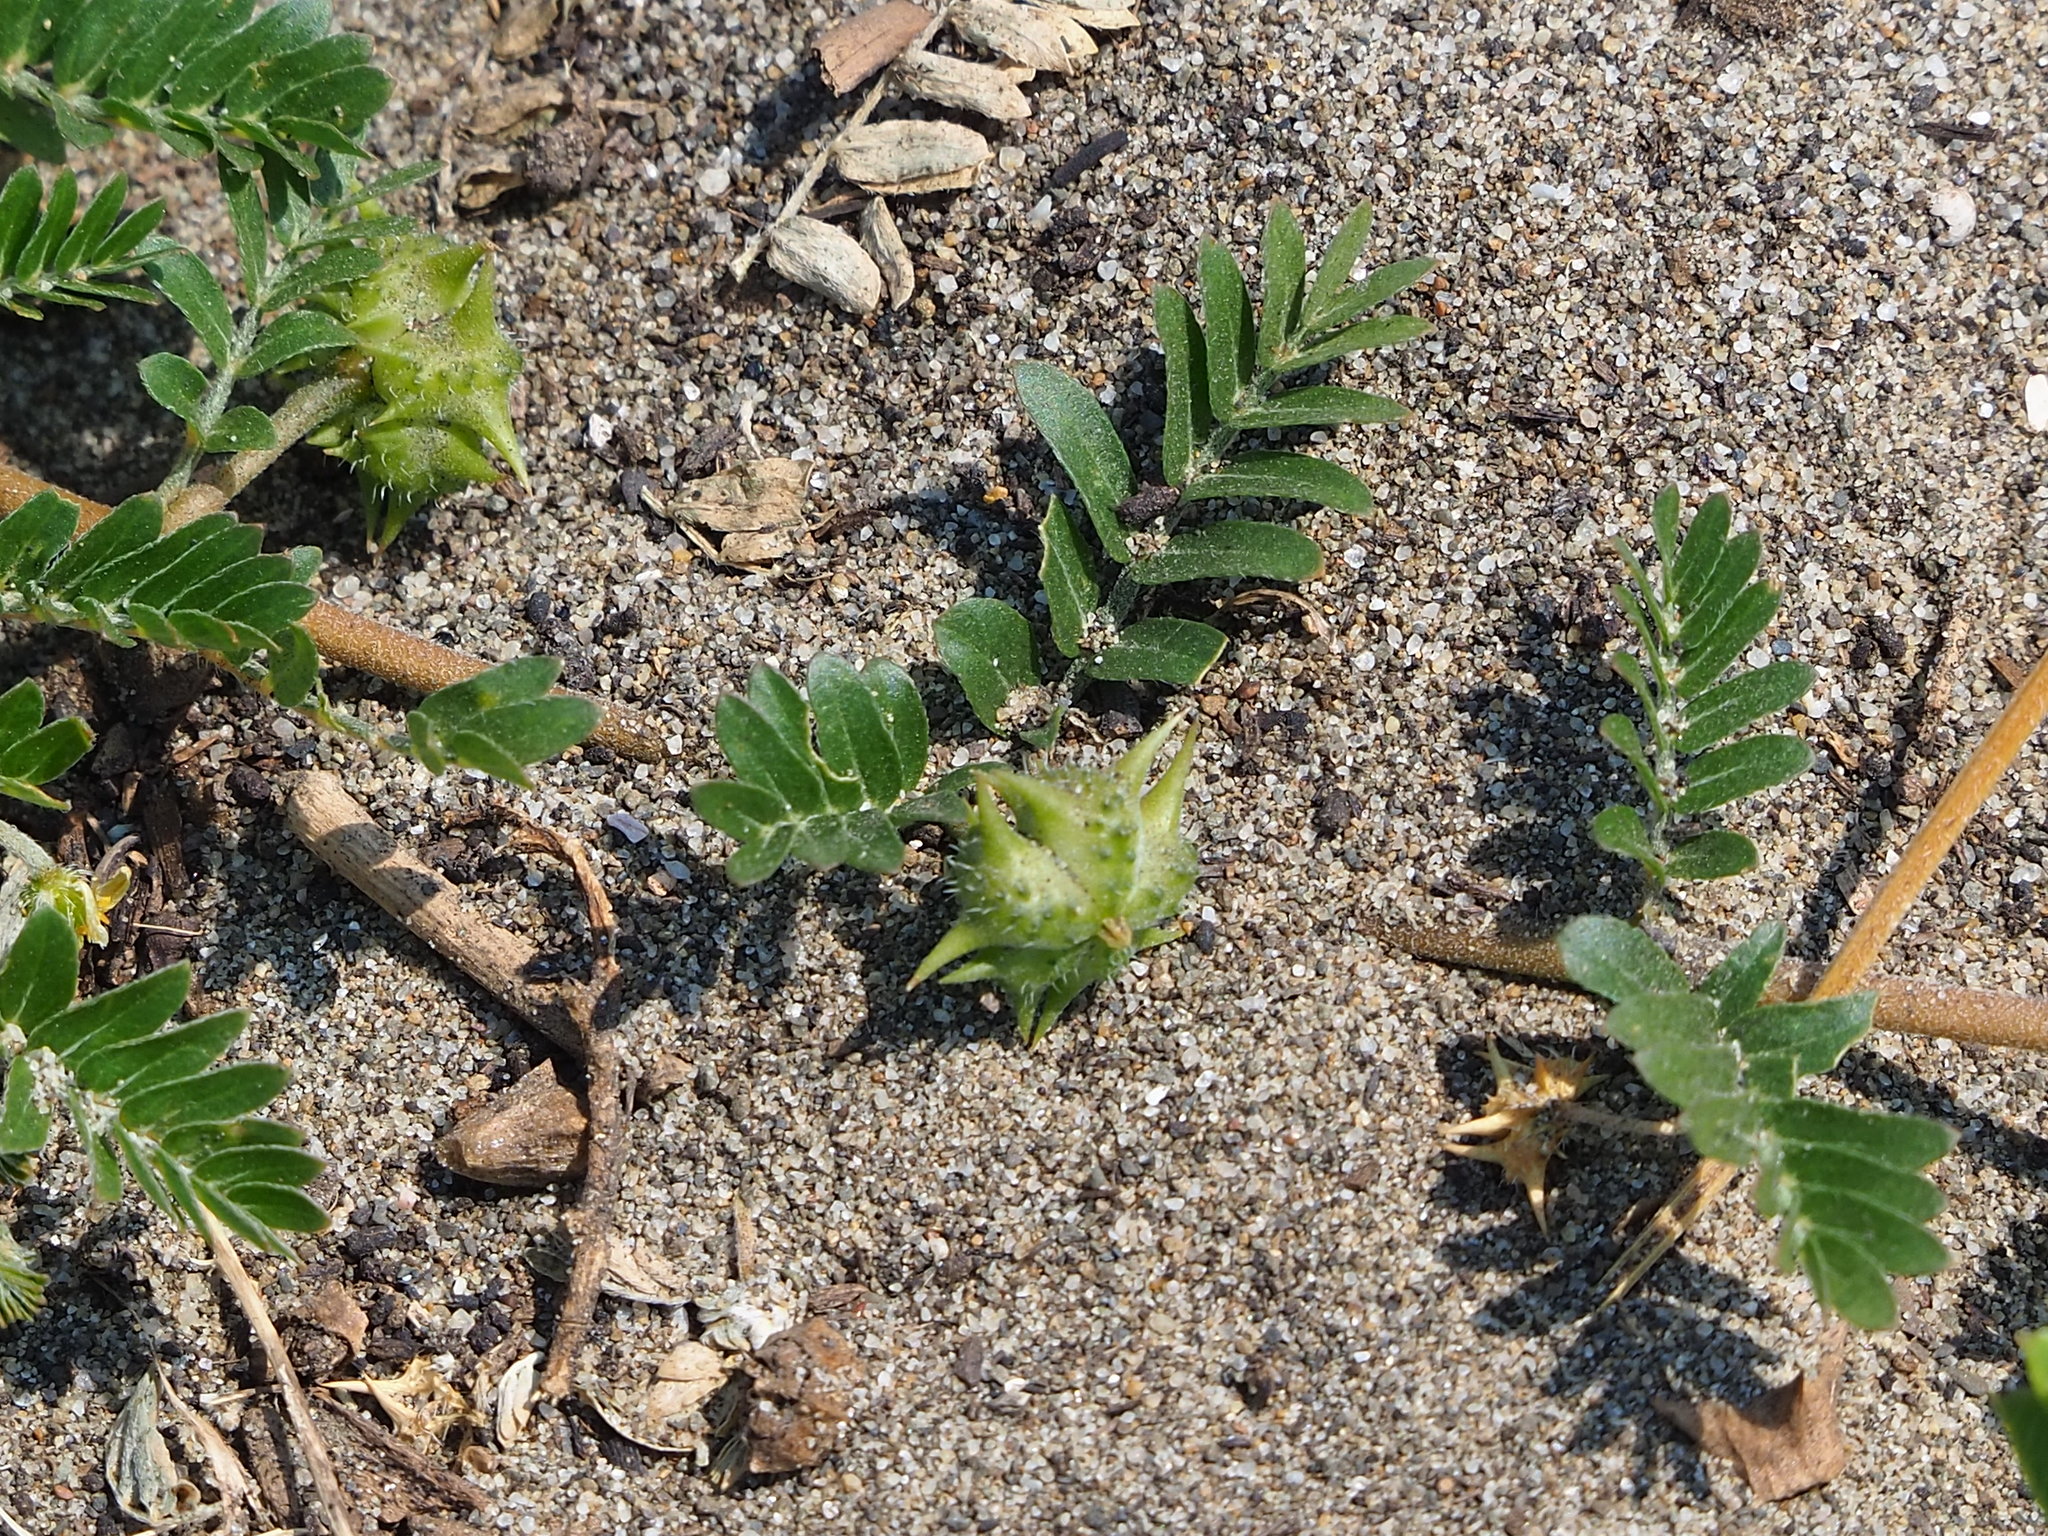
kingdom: Plantae
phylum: Tracheophyta
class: Magnoliopsida
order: Zygophyllales
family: Zygophyllaceae
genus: Tribulus
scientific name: Tribulus cistoides
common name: Jamaican feverplant
